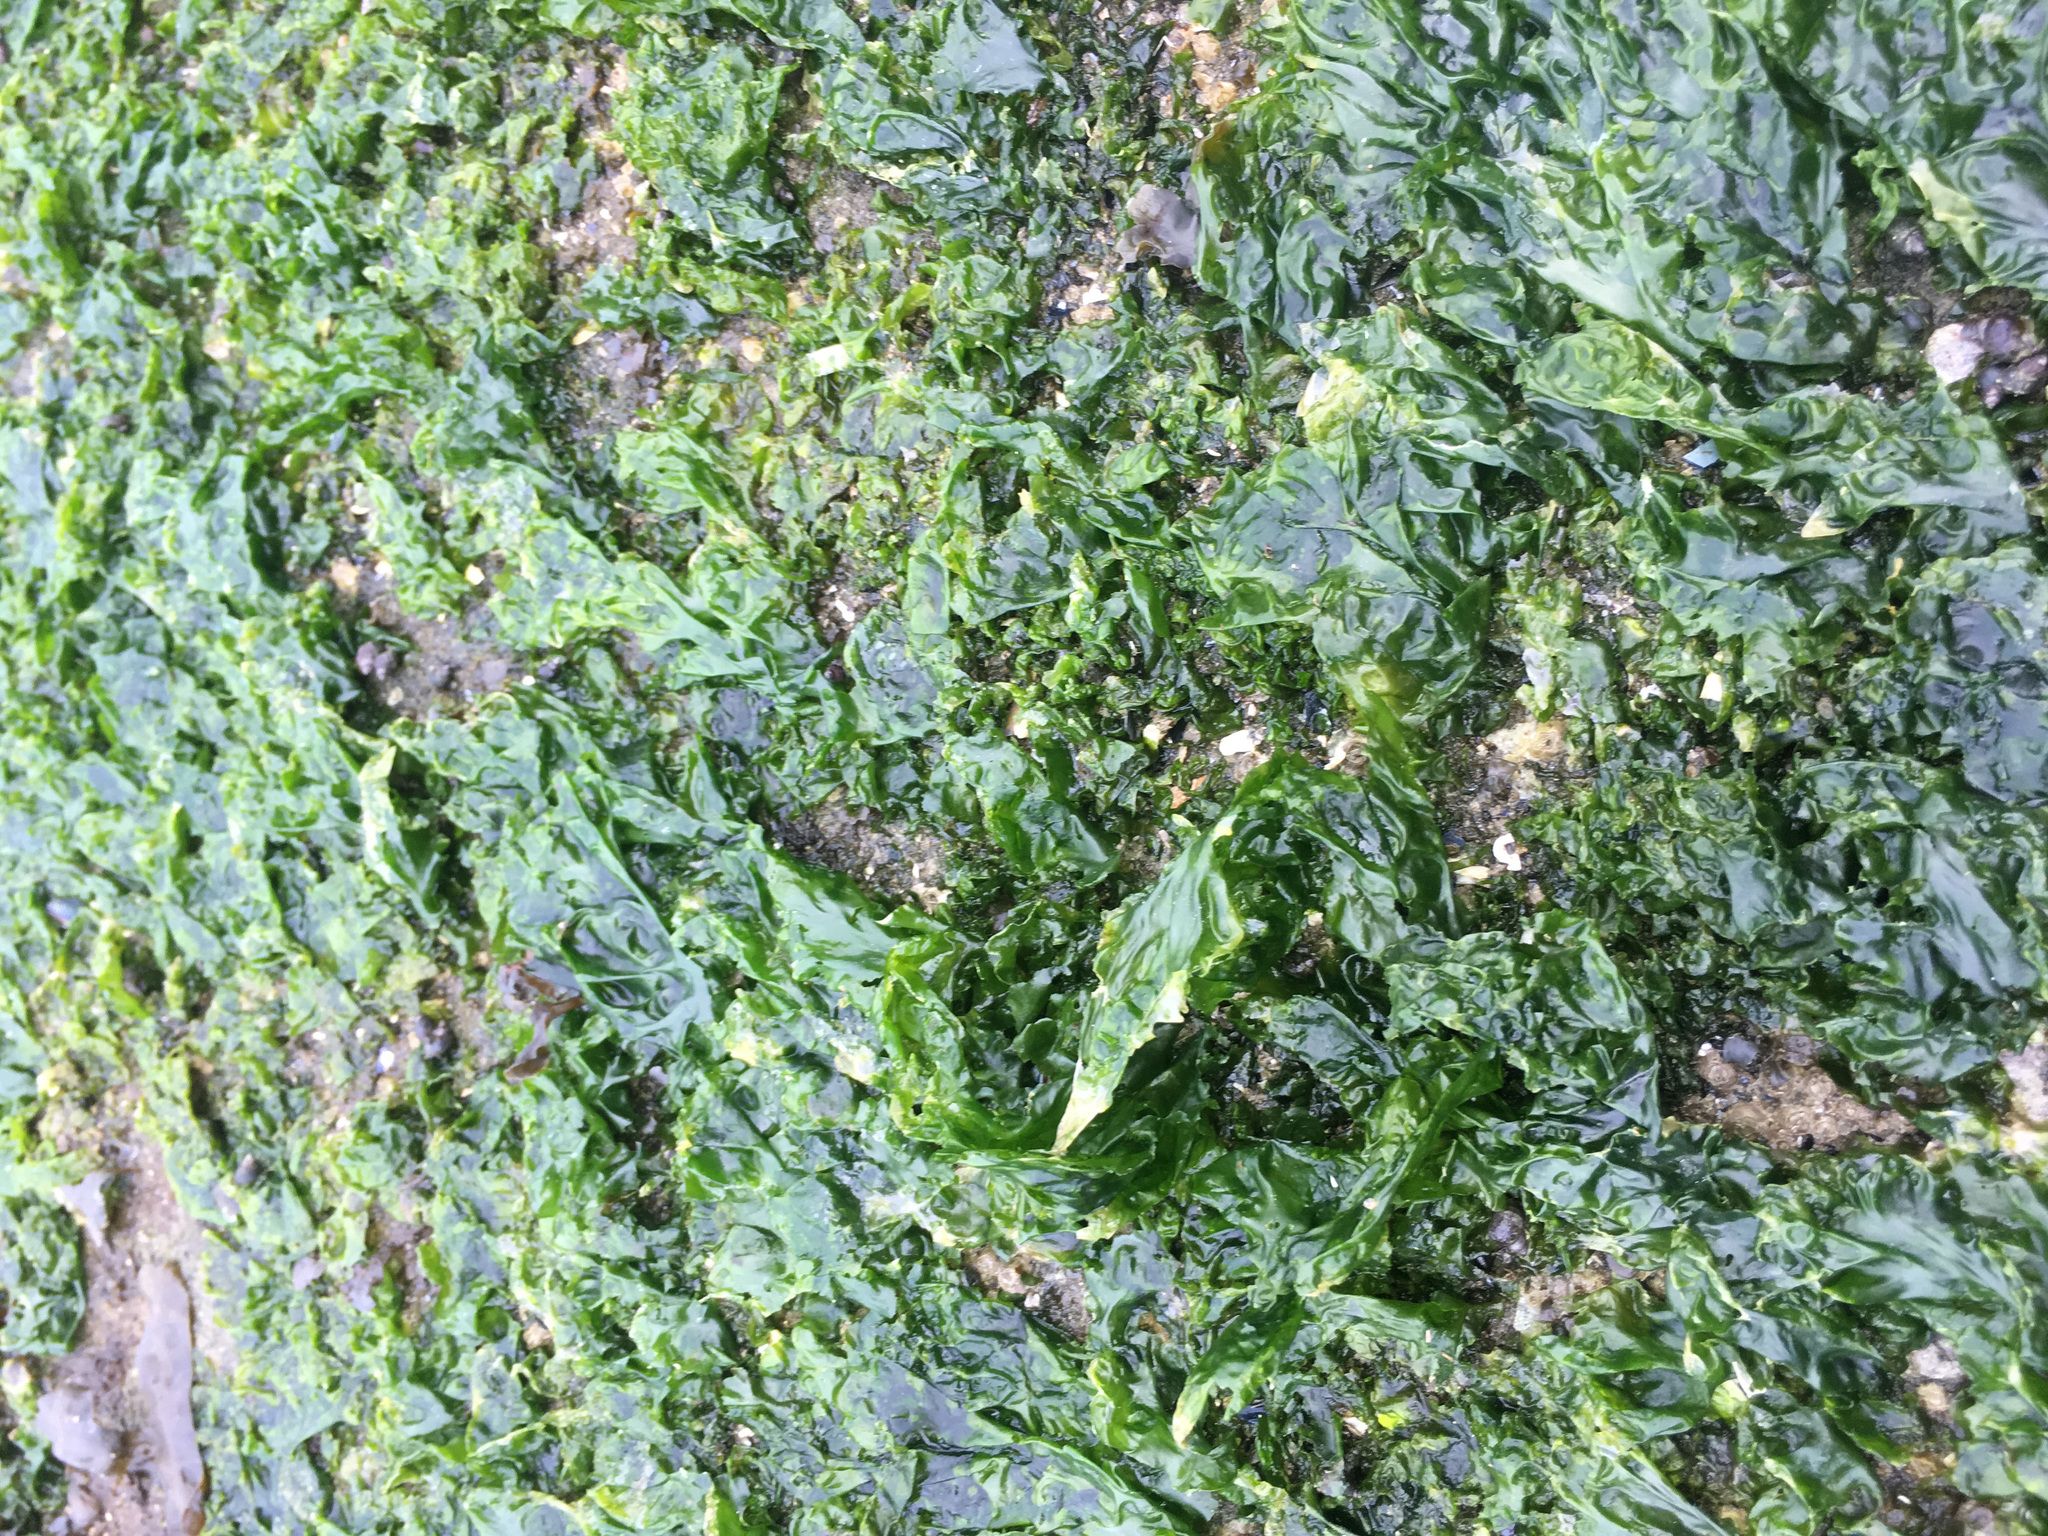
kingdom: Plantae
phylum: Chlorophyta
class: Ulvophyceae
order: Ulvales
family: Ulvaceae
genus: Ulva
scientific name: Ulva lactuca
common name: Sea lettuce
